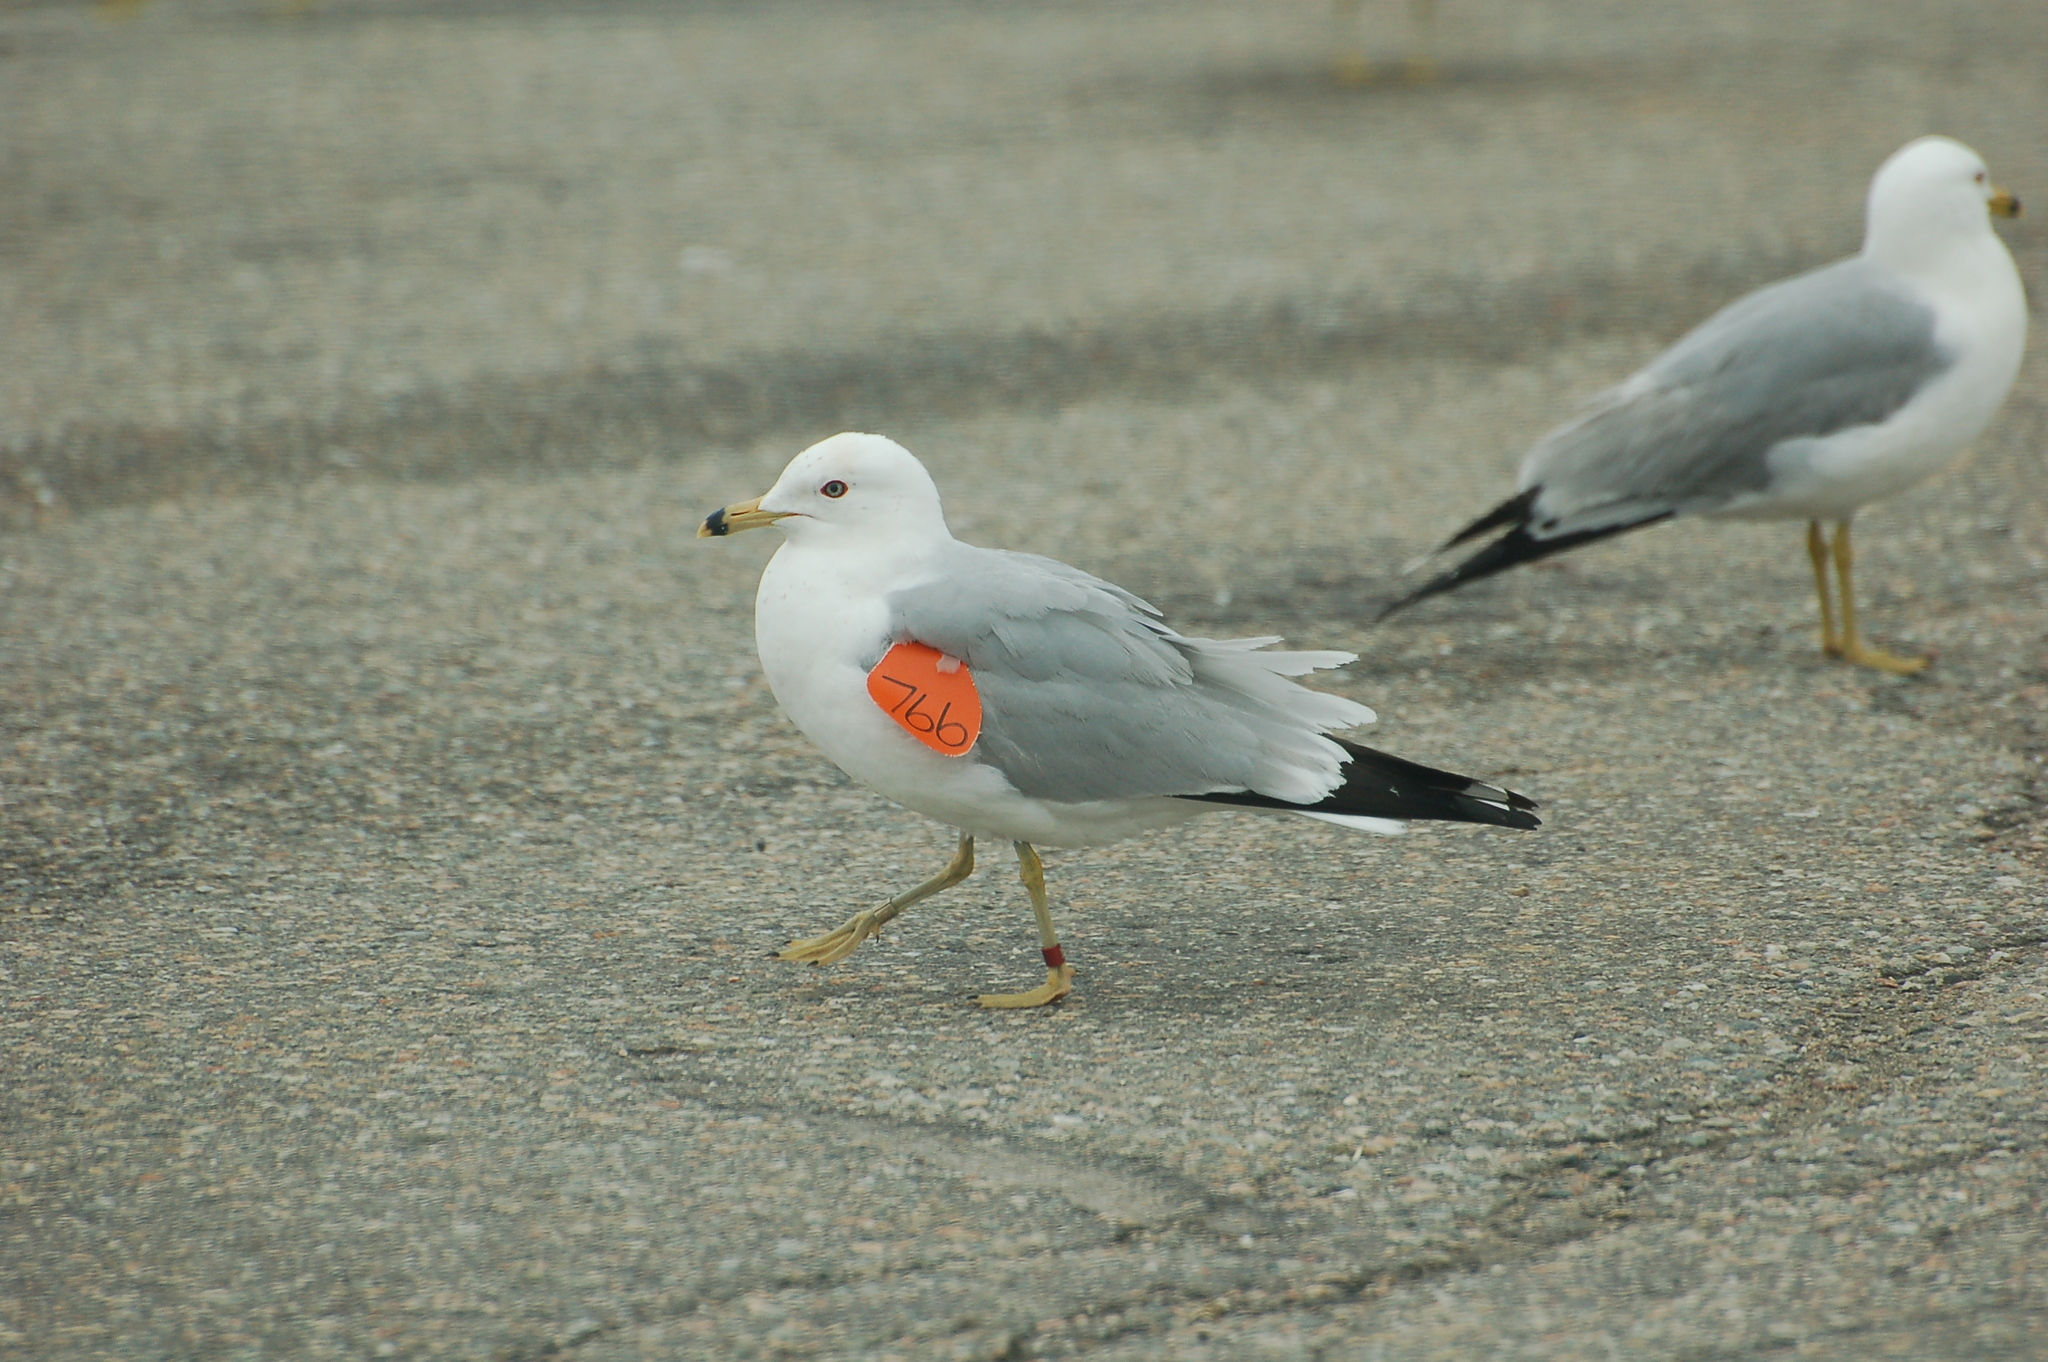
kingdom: Animalia
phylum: Chordata
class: Aves
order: Charadriiformes
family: Laridae
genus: Larus
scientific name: Larus delawarensis
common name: Ring-billed gull
